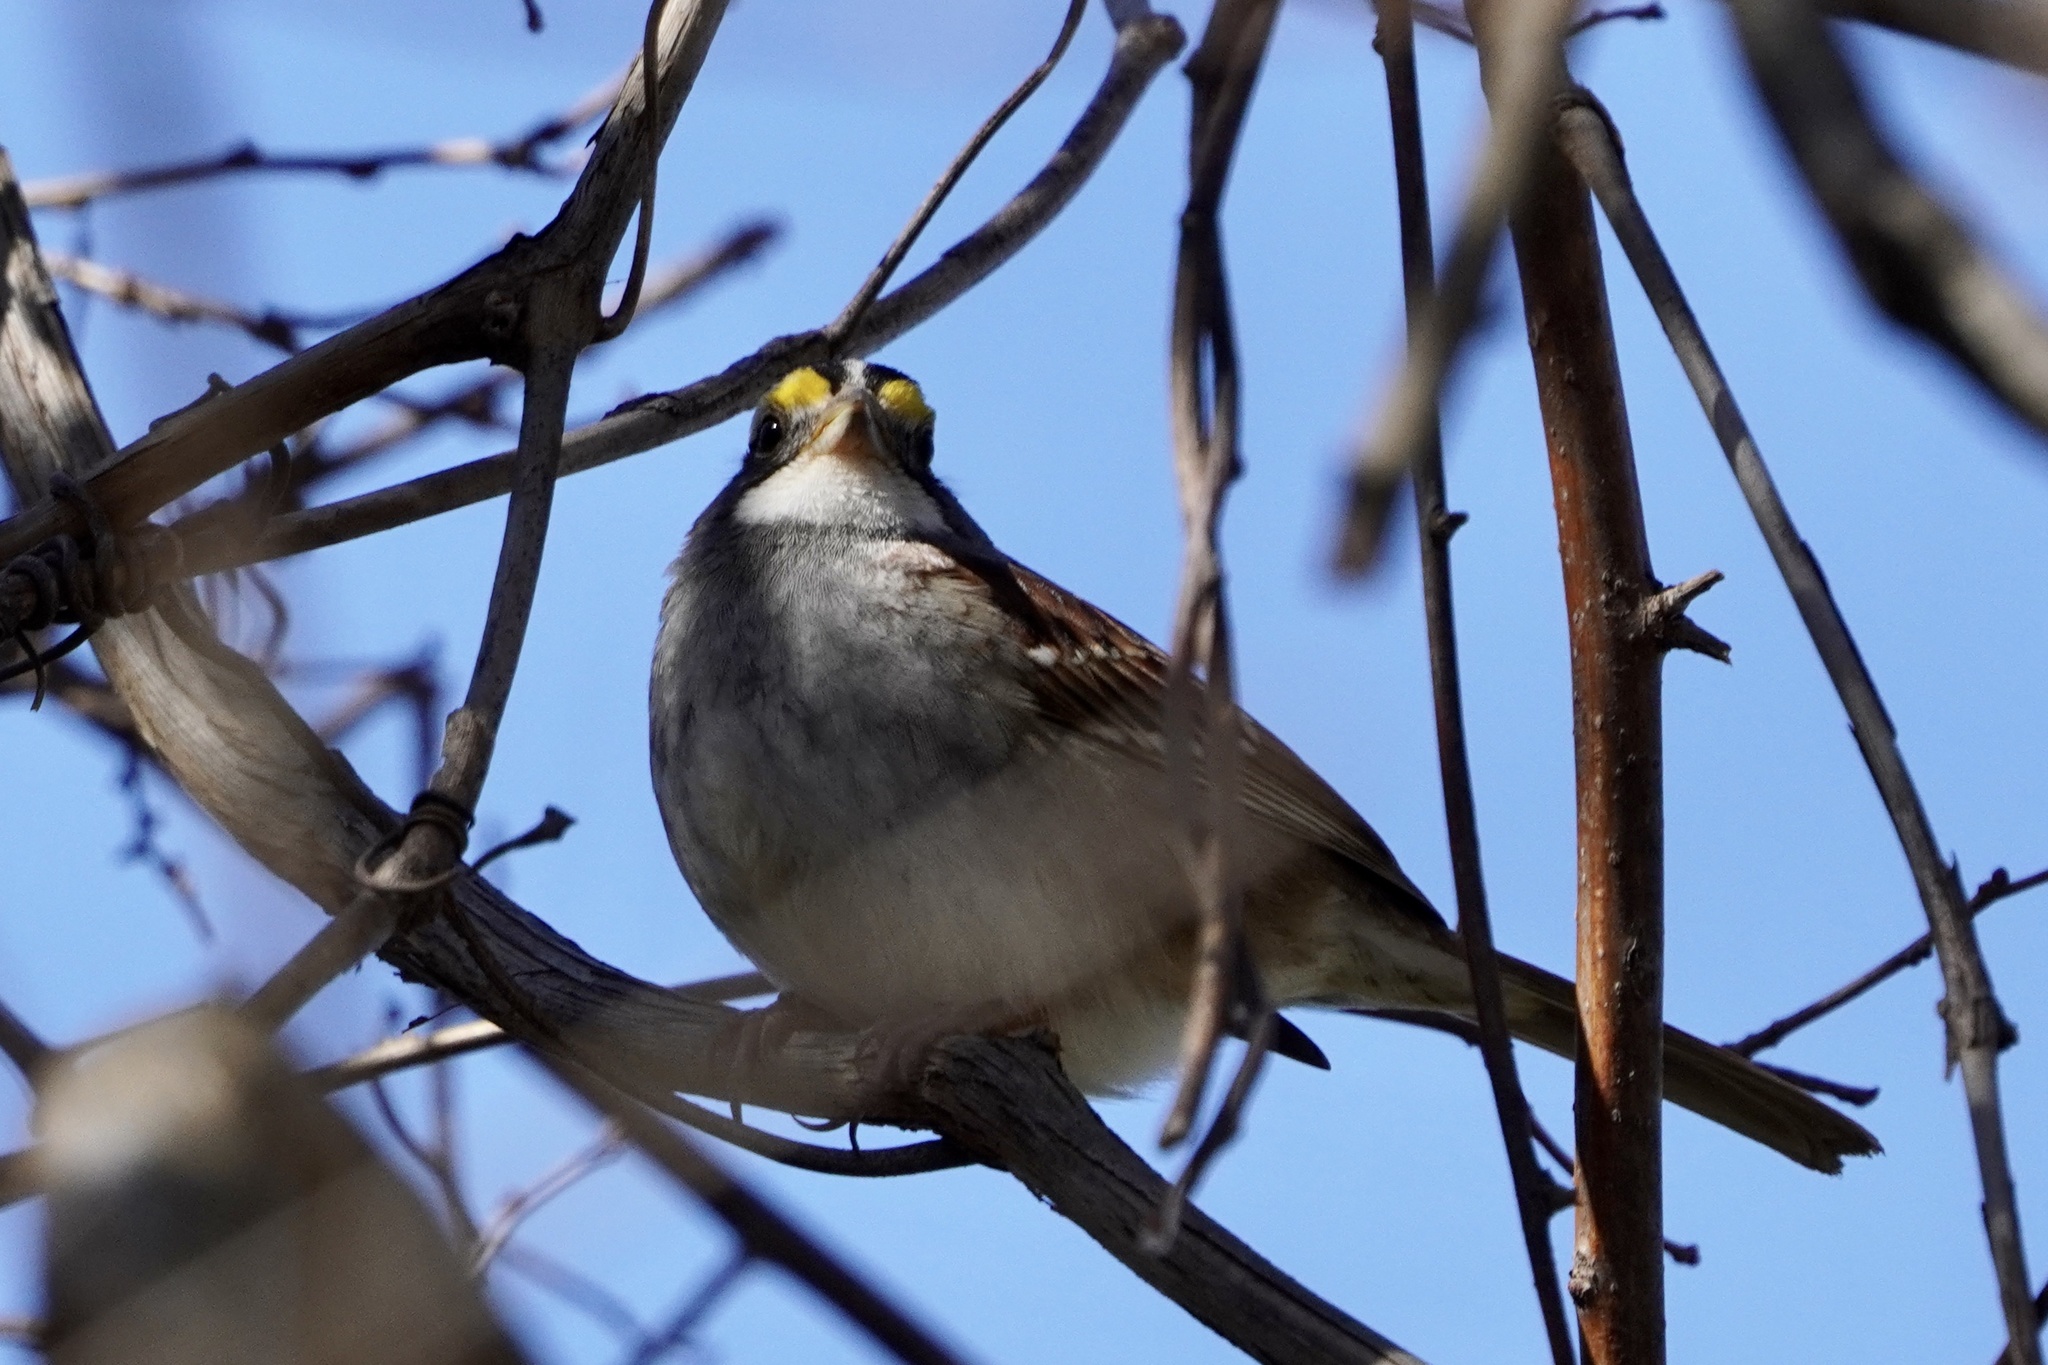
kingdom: Animalia
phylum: Chordata
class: Aves
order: Passeriformes
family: Passerellidae
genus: Zonotrichia
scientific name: Zonotrichia albicollis
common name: White-throated sparrow
